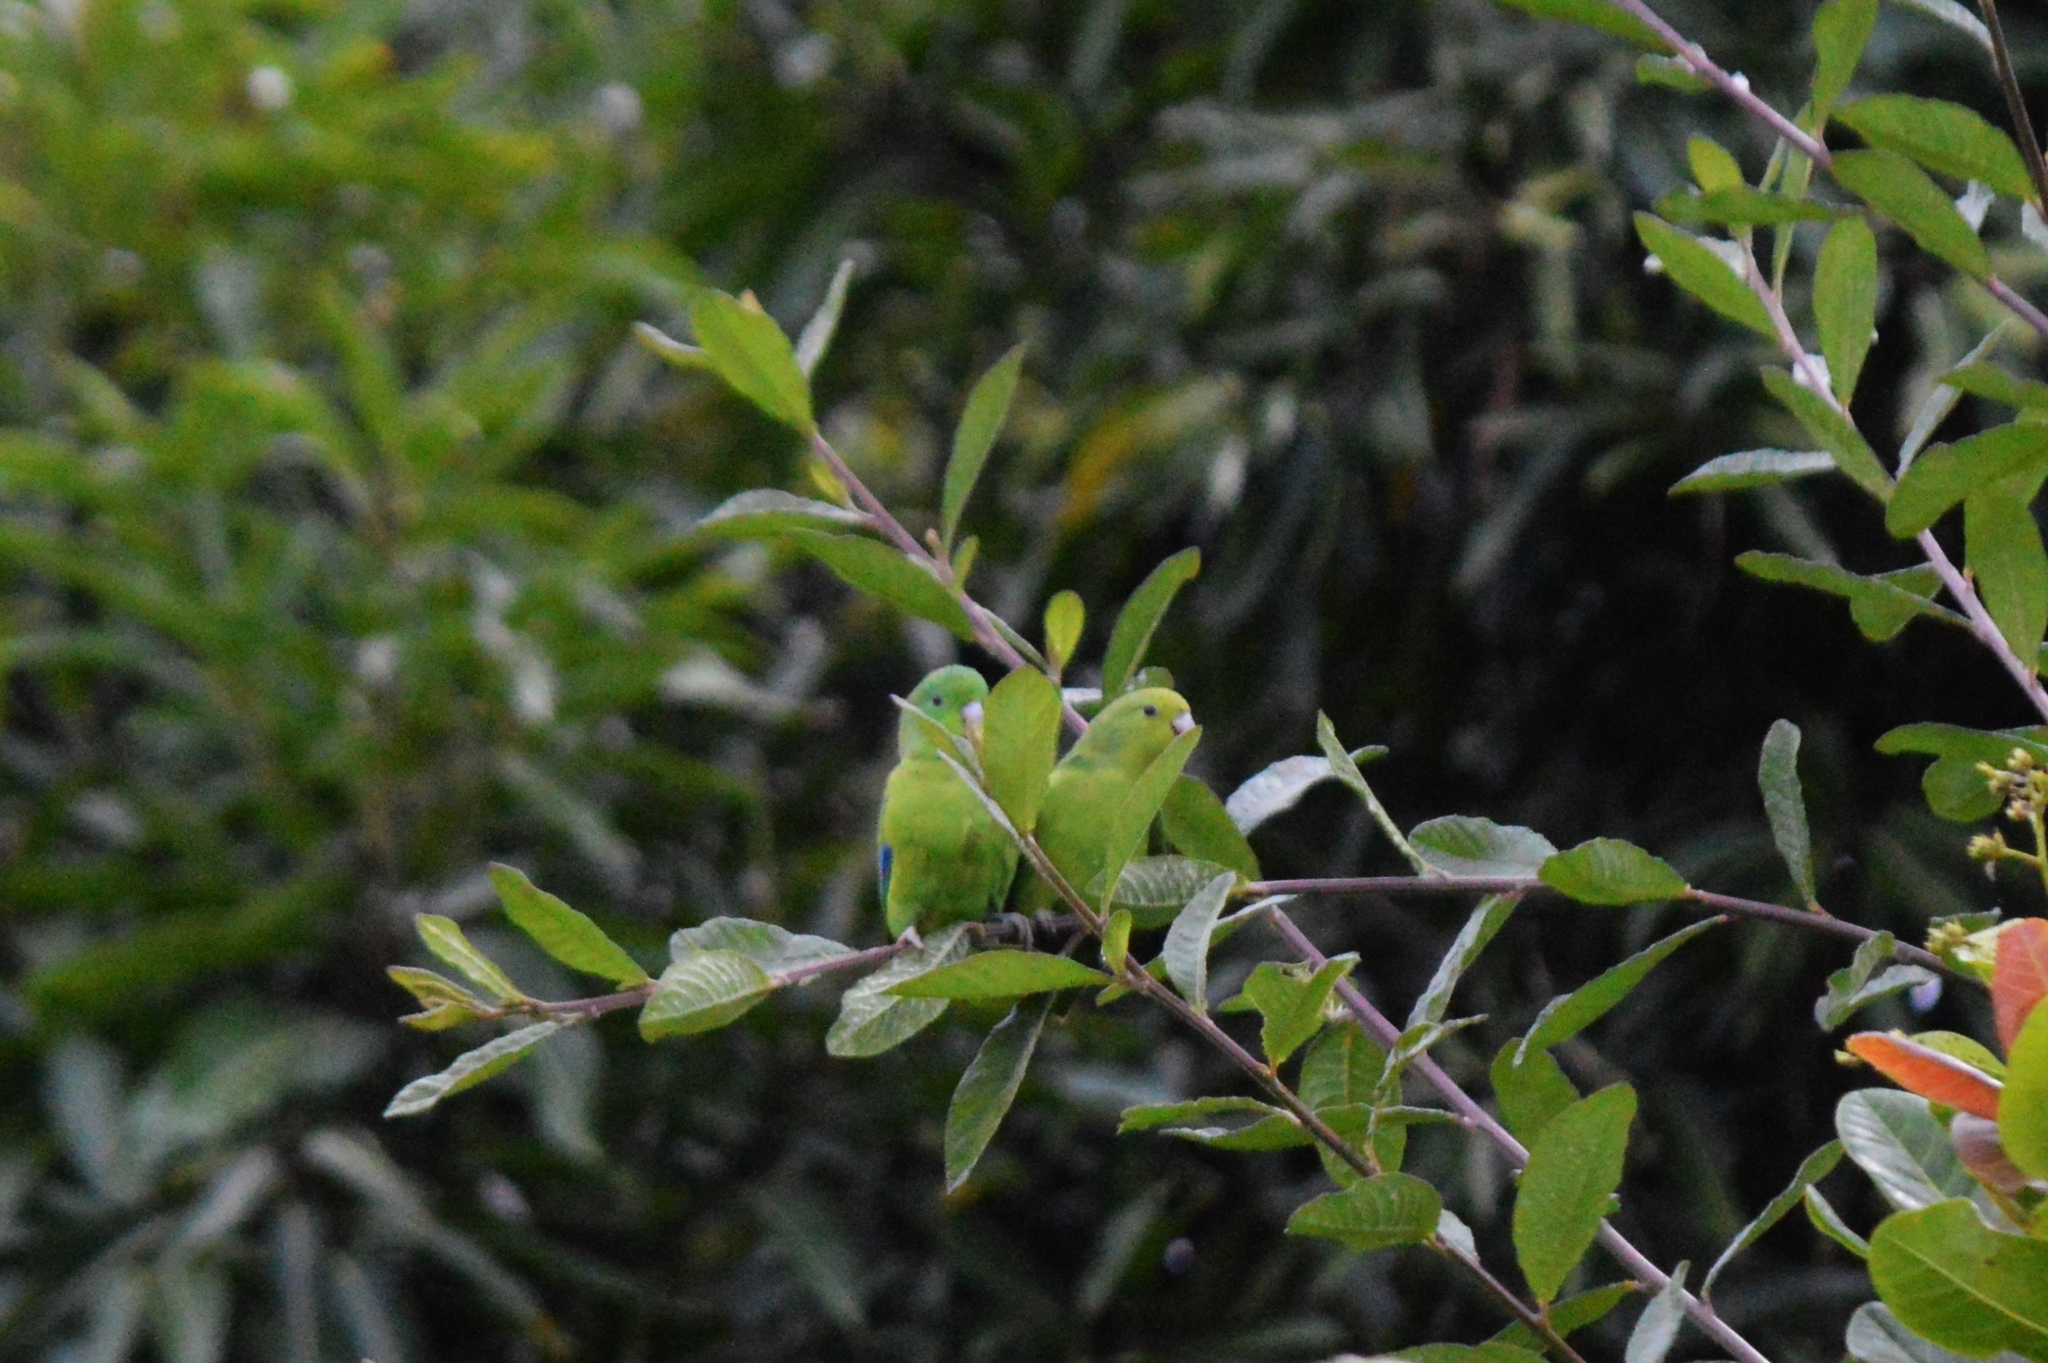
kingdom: Animalia
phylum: Chordata
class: Aves
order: Psittaciformes
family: Psittacidae
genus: Forpus
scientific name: Forpus xanthopterygius
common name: Blue-winged parrotlet
